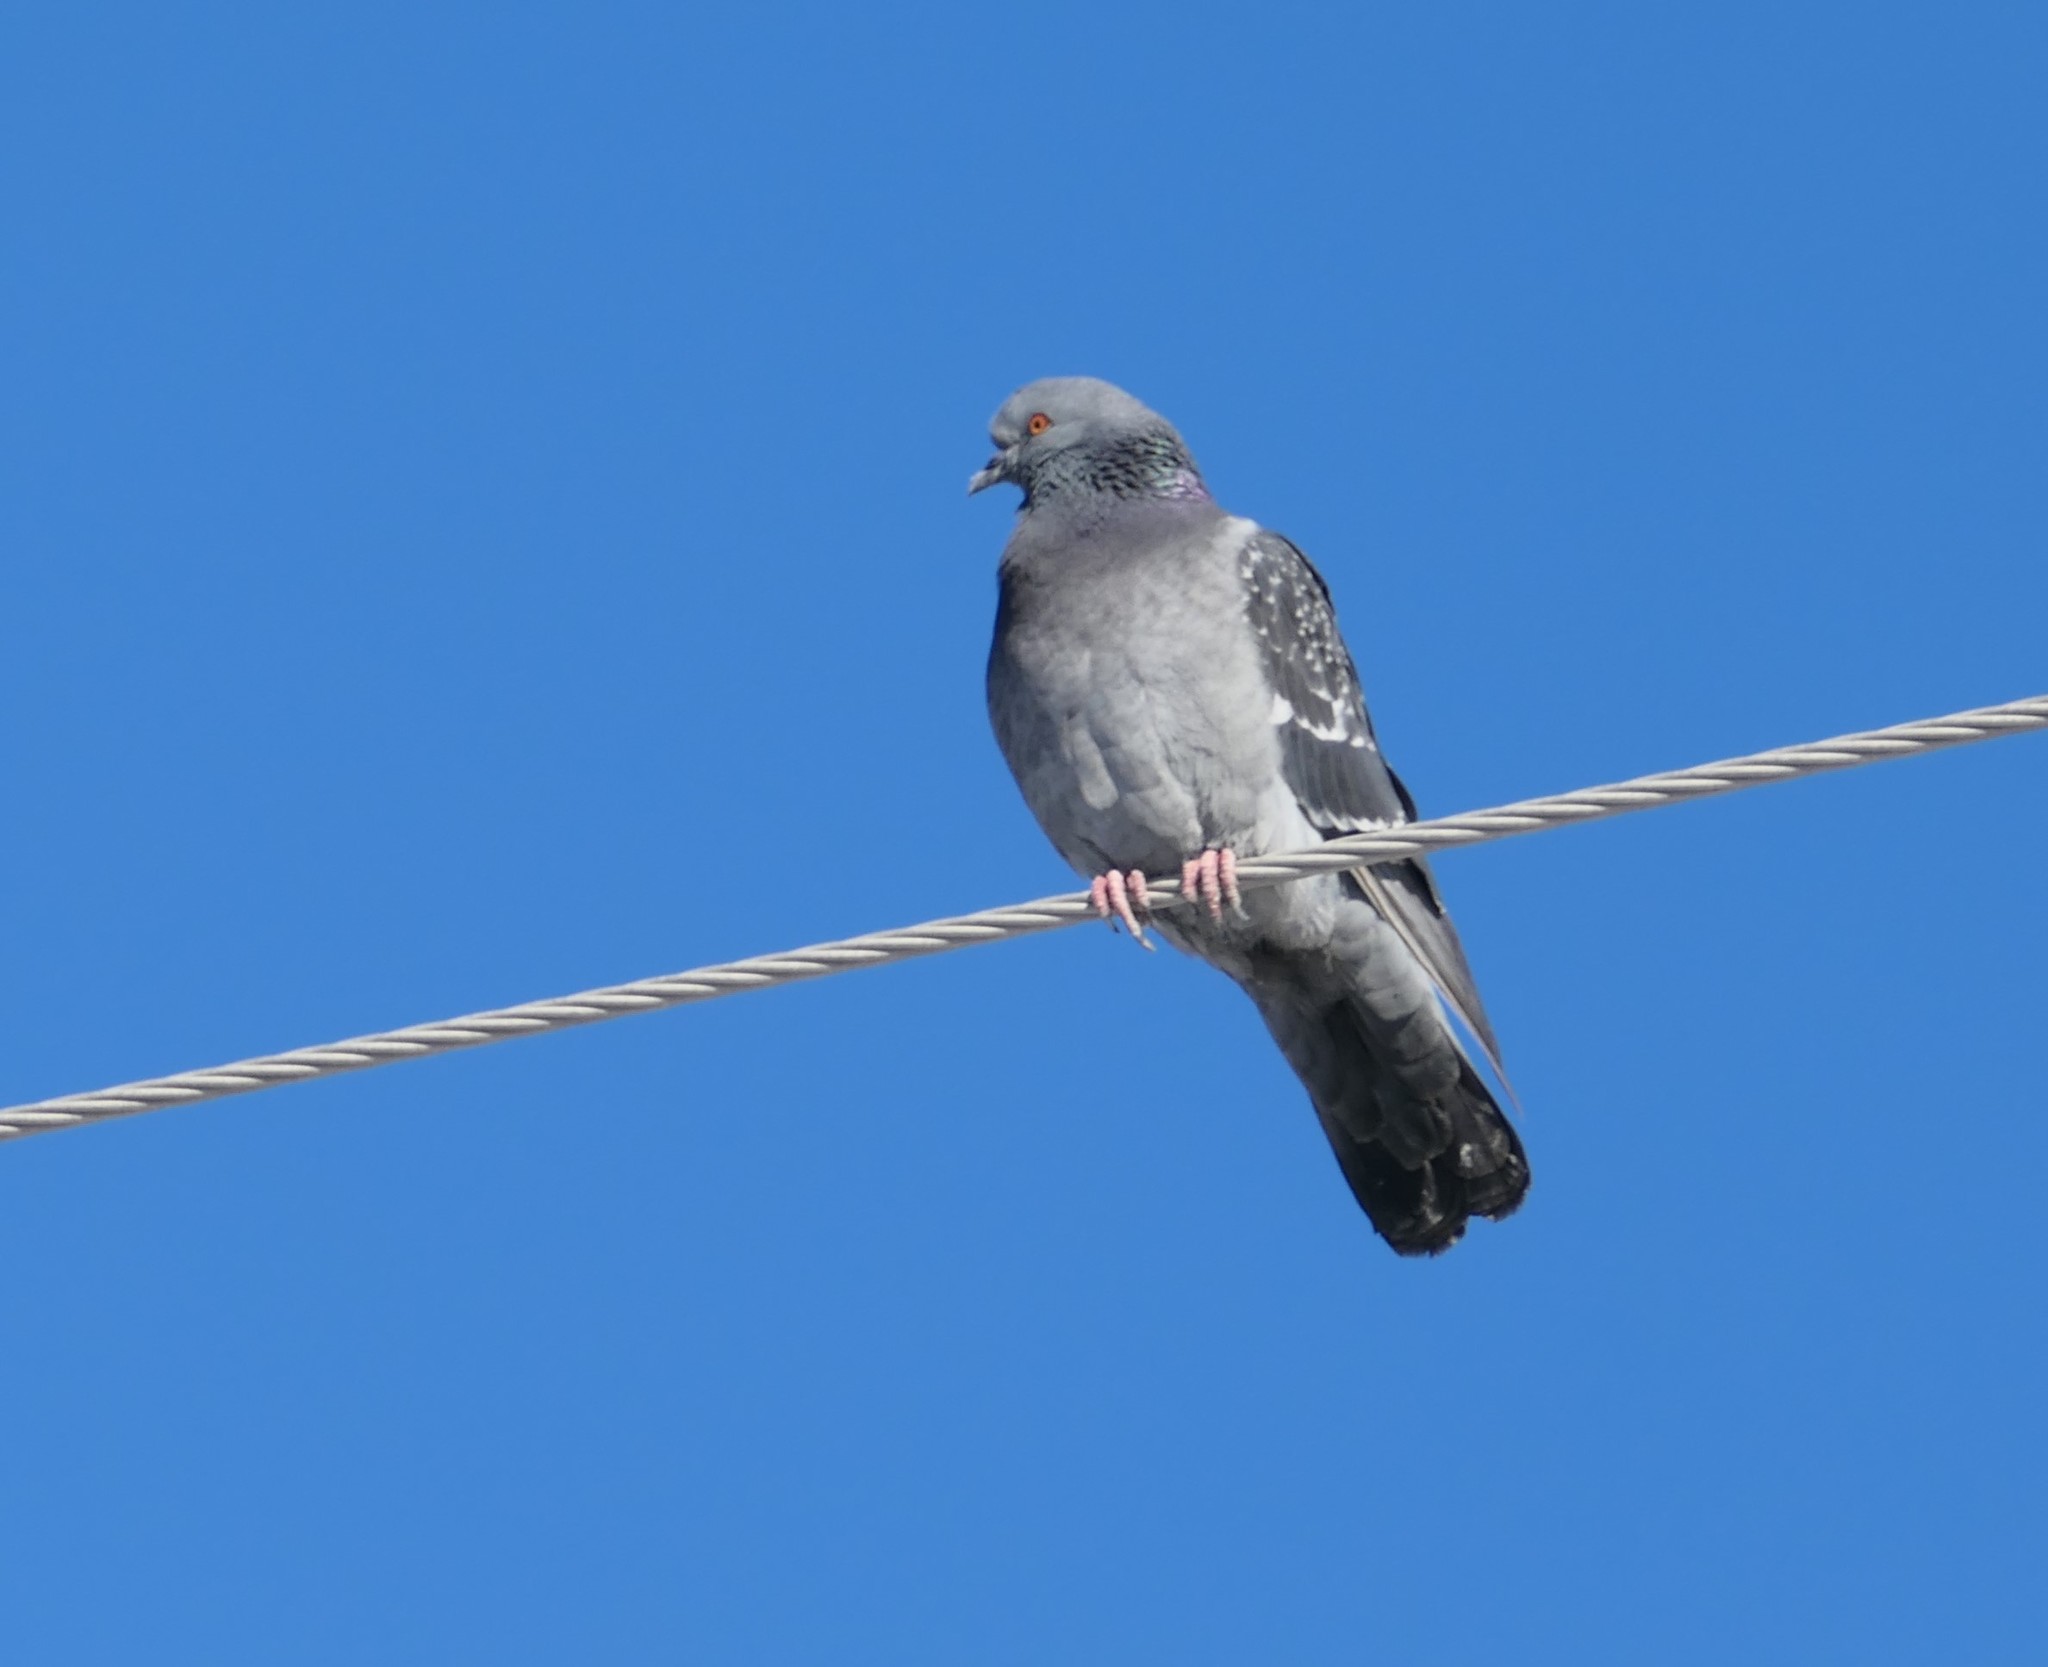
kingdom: Animalia
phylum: Chordata
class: Aves
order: Columbiformes
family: Columbidae
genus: Columba
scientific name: Columba livia
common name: Rock pigeon
